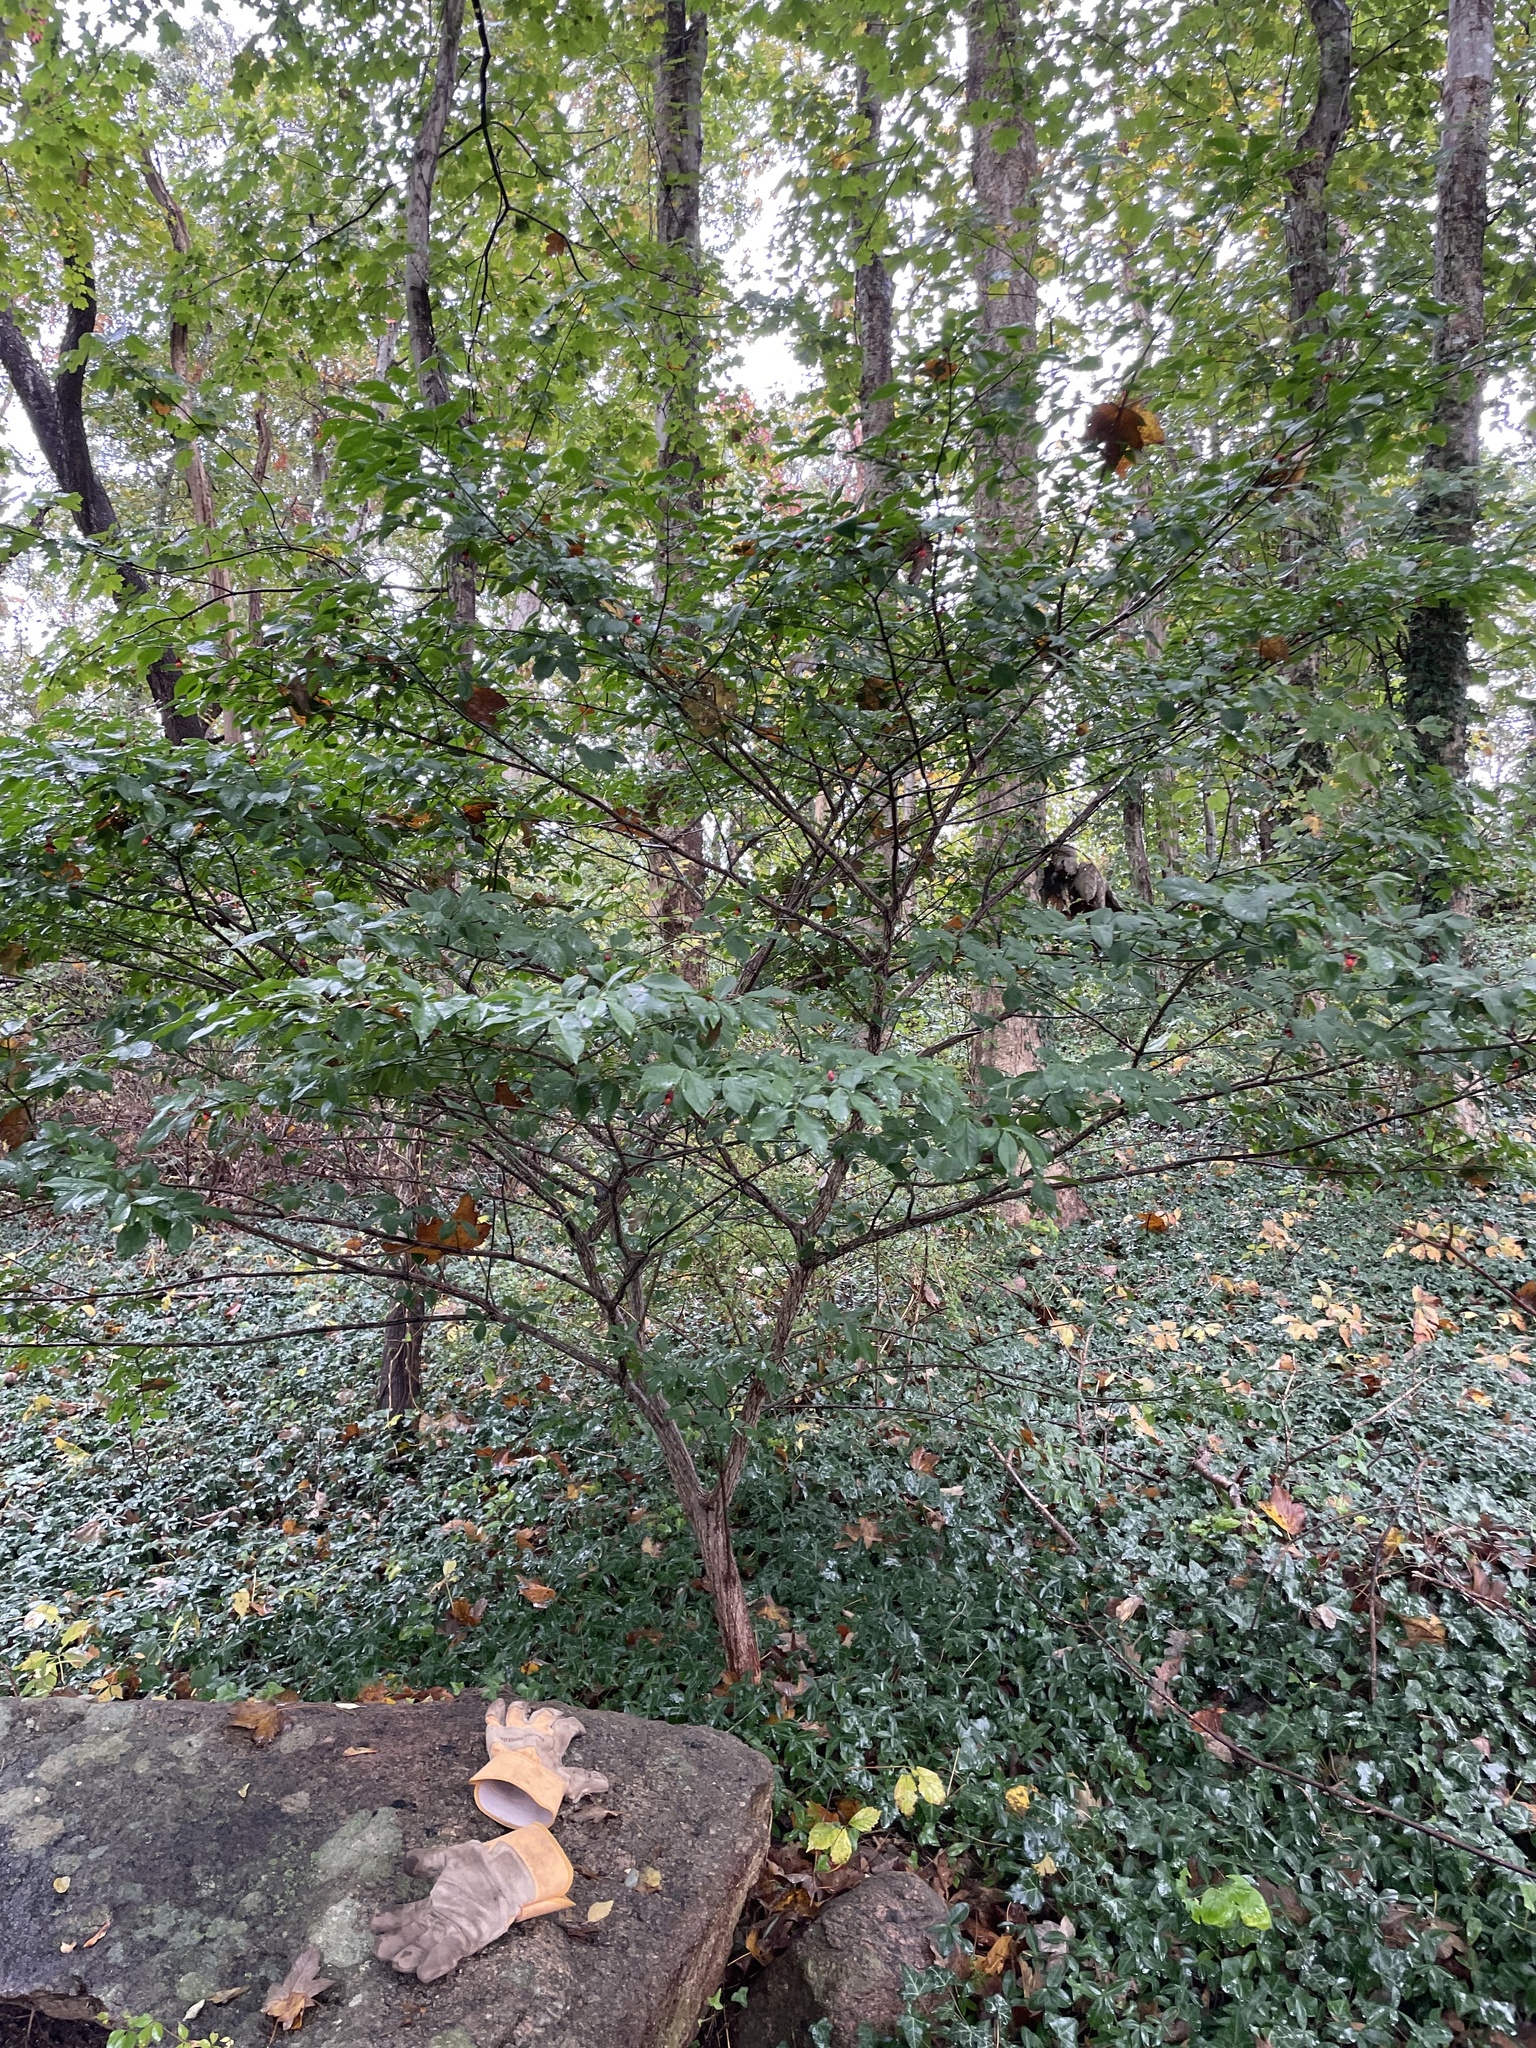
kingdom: Plantae
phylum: Tracheophyta
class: Magnoliopsida
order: Celastrales
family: Celastraceae
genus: Euonymus
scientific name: Euonymus alatus
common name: Winged euonymus
